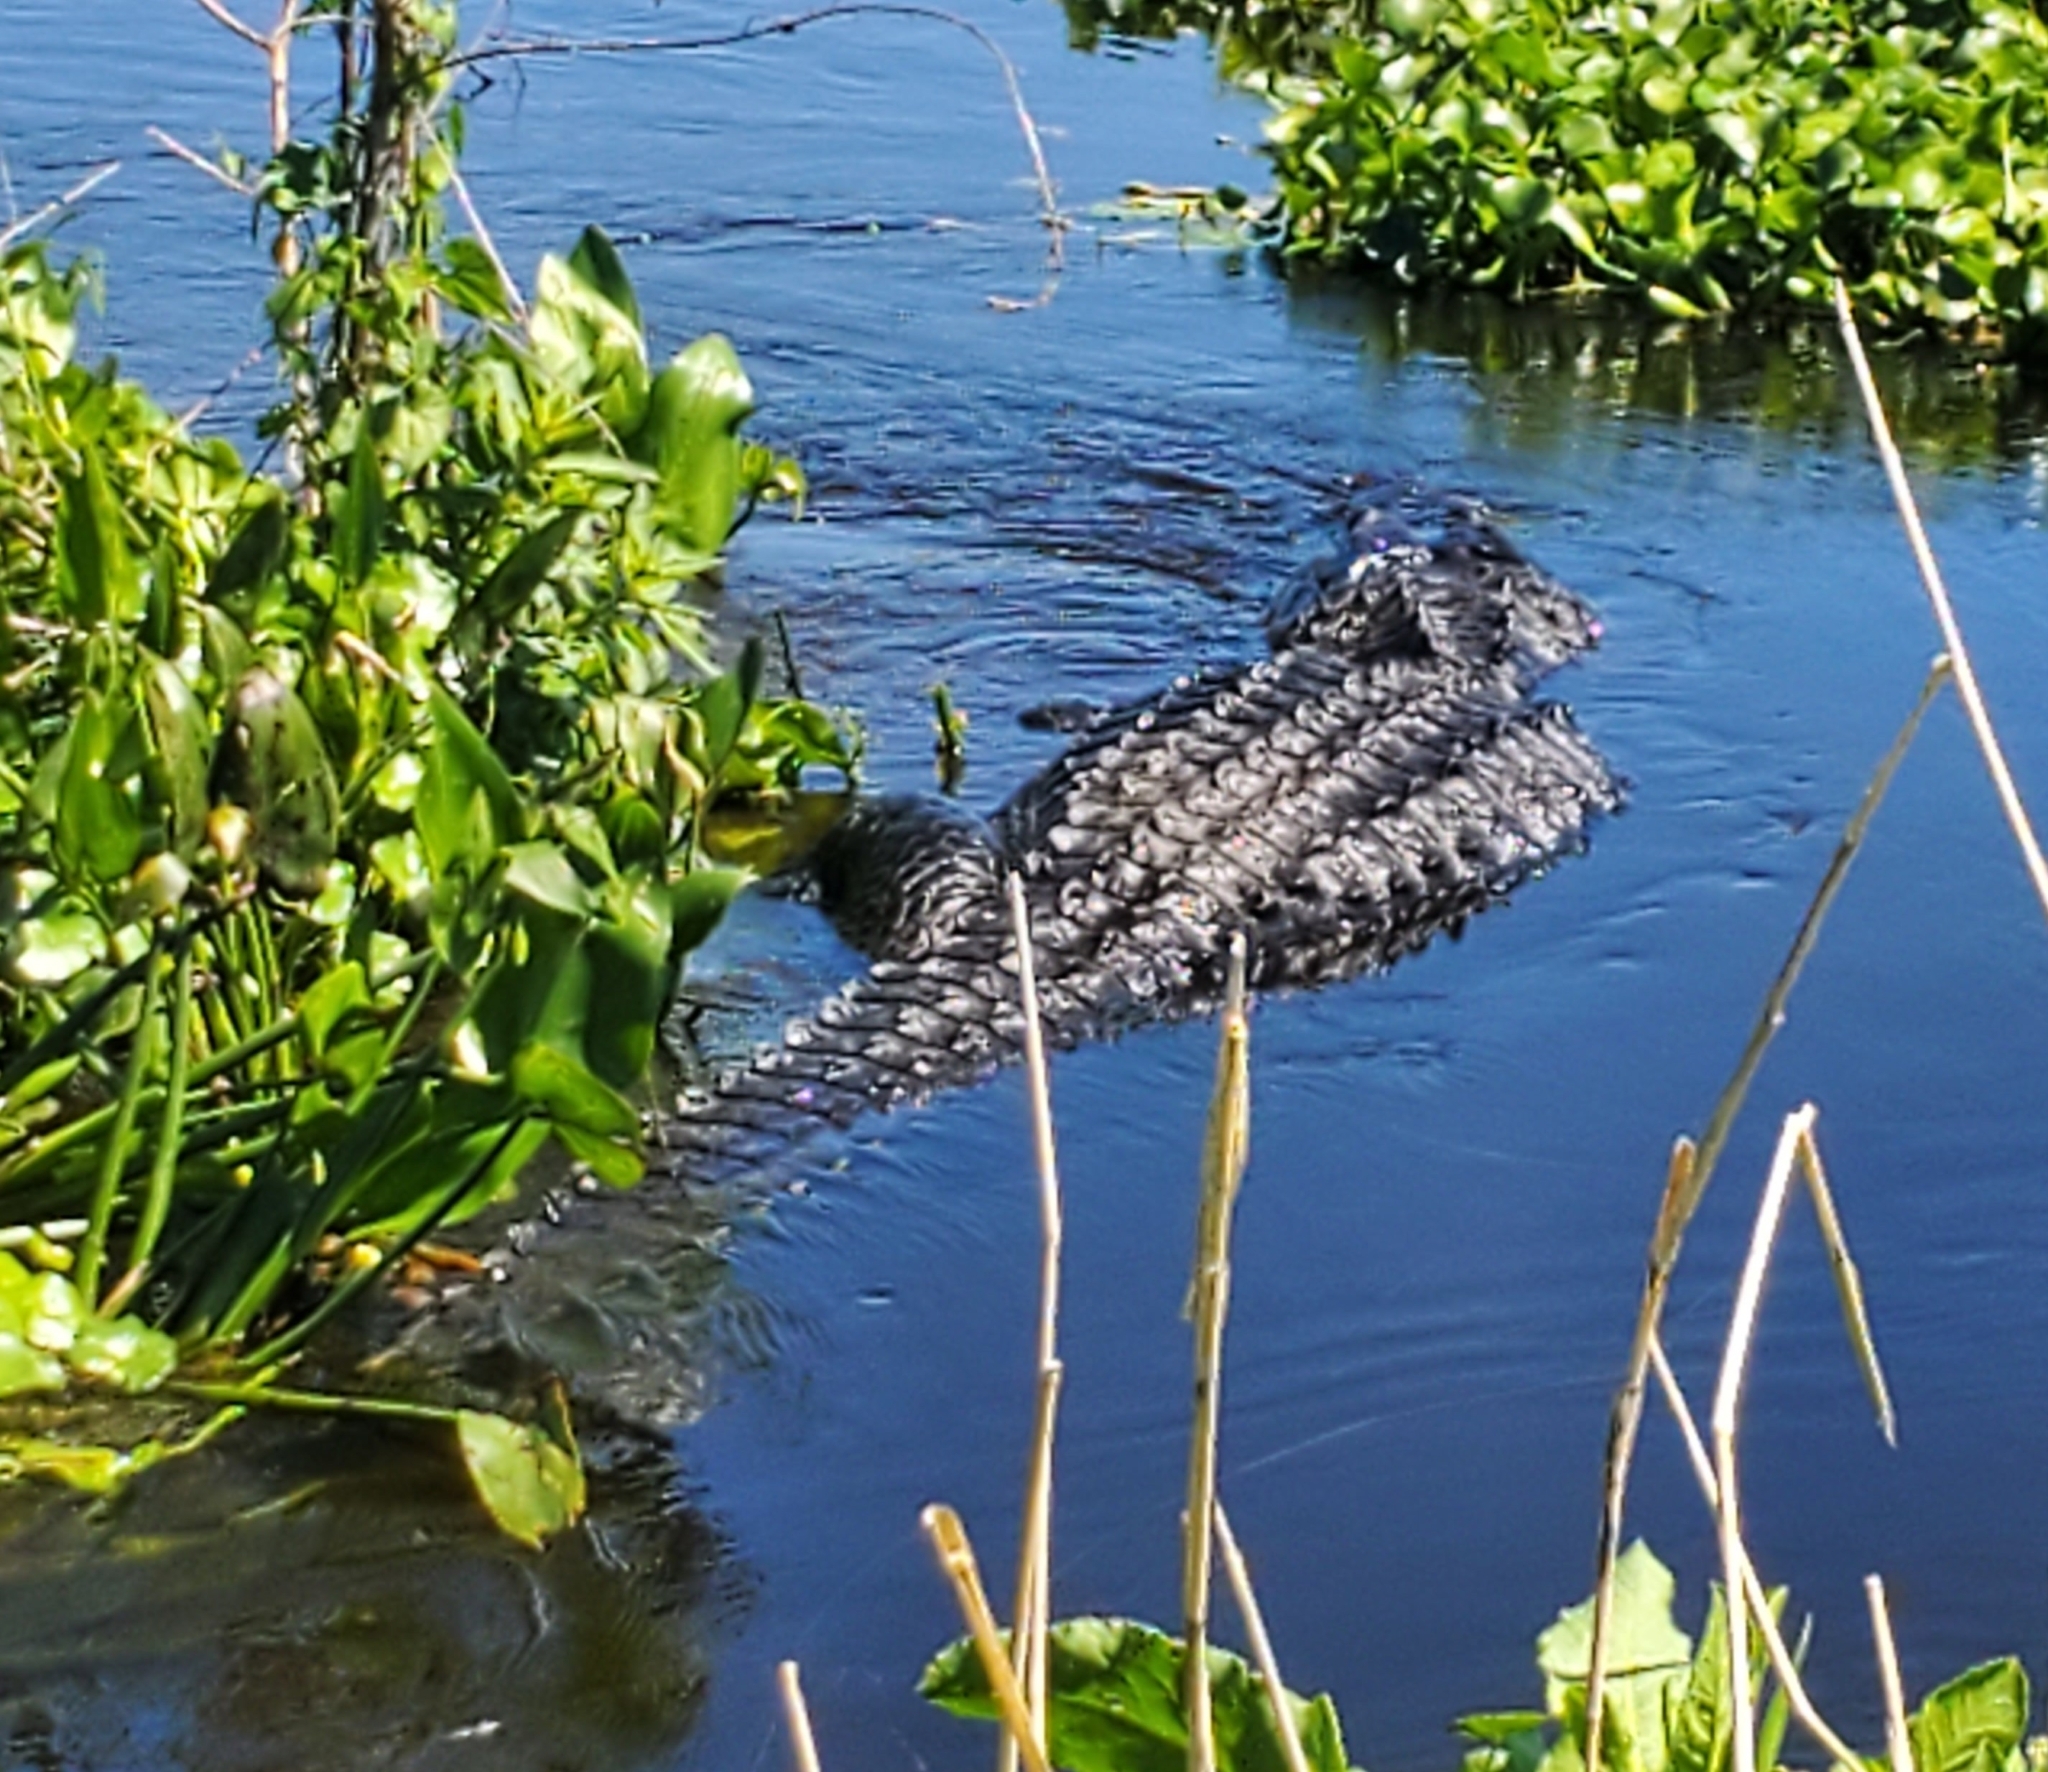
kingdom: Animalia
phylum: Chordata
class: Crocodylia
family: Alligatoridae
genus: Alligator
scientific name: Alligator mississippiensis
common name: American alligator
